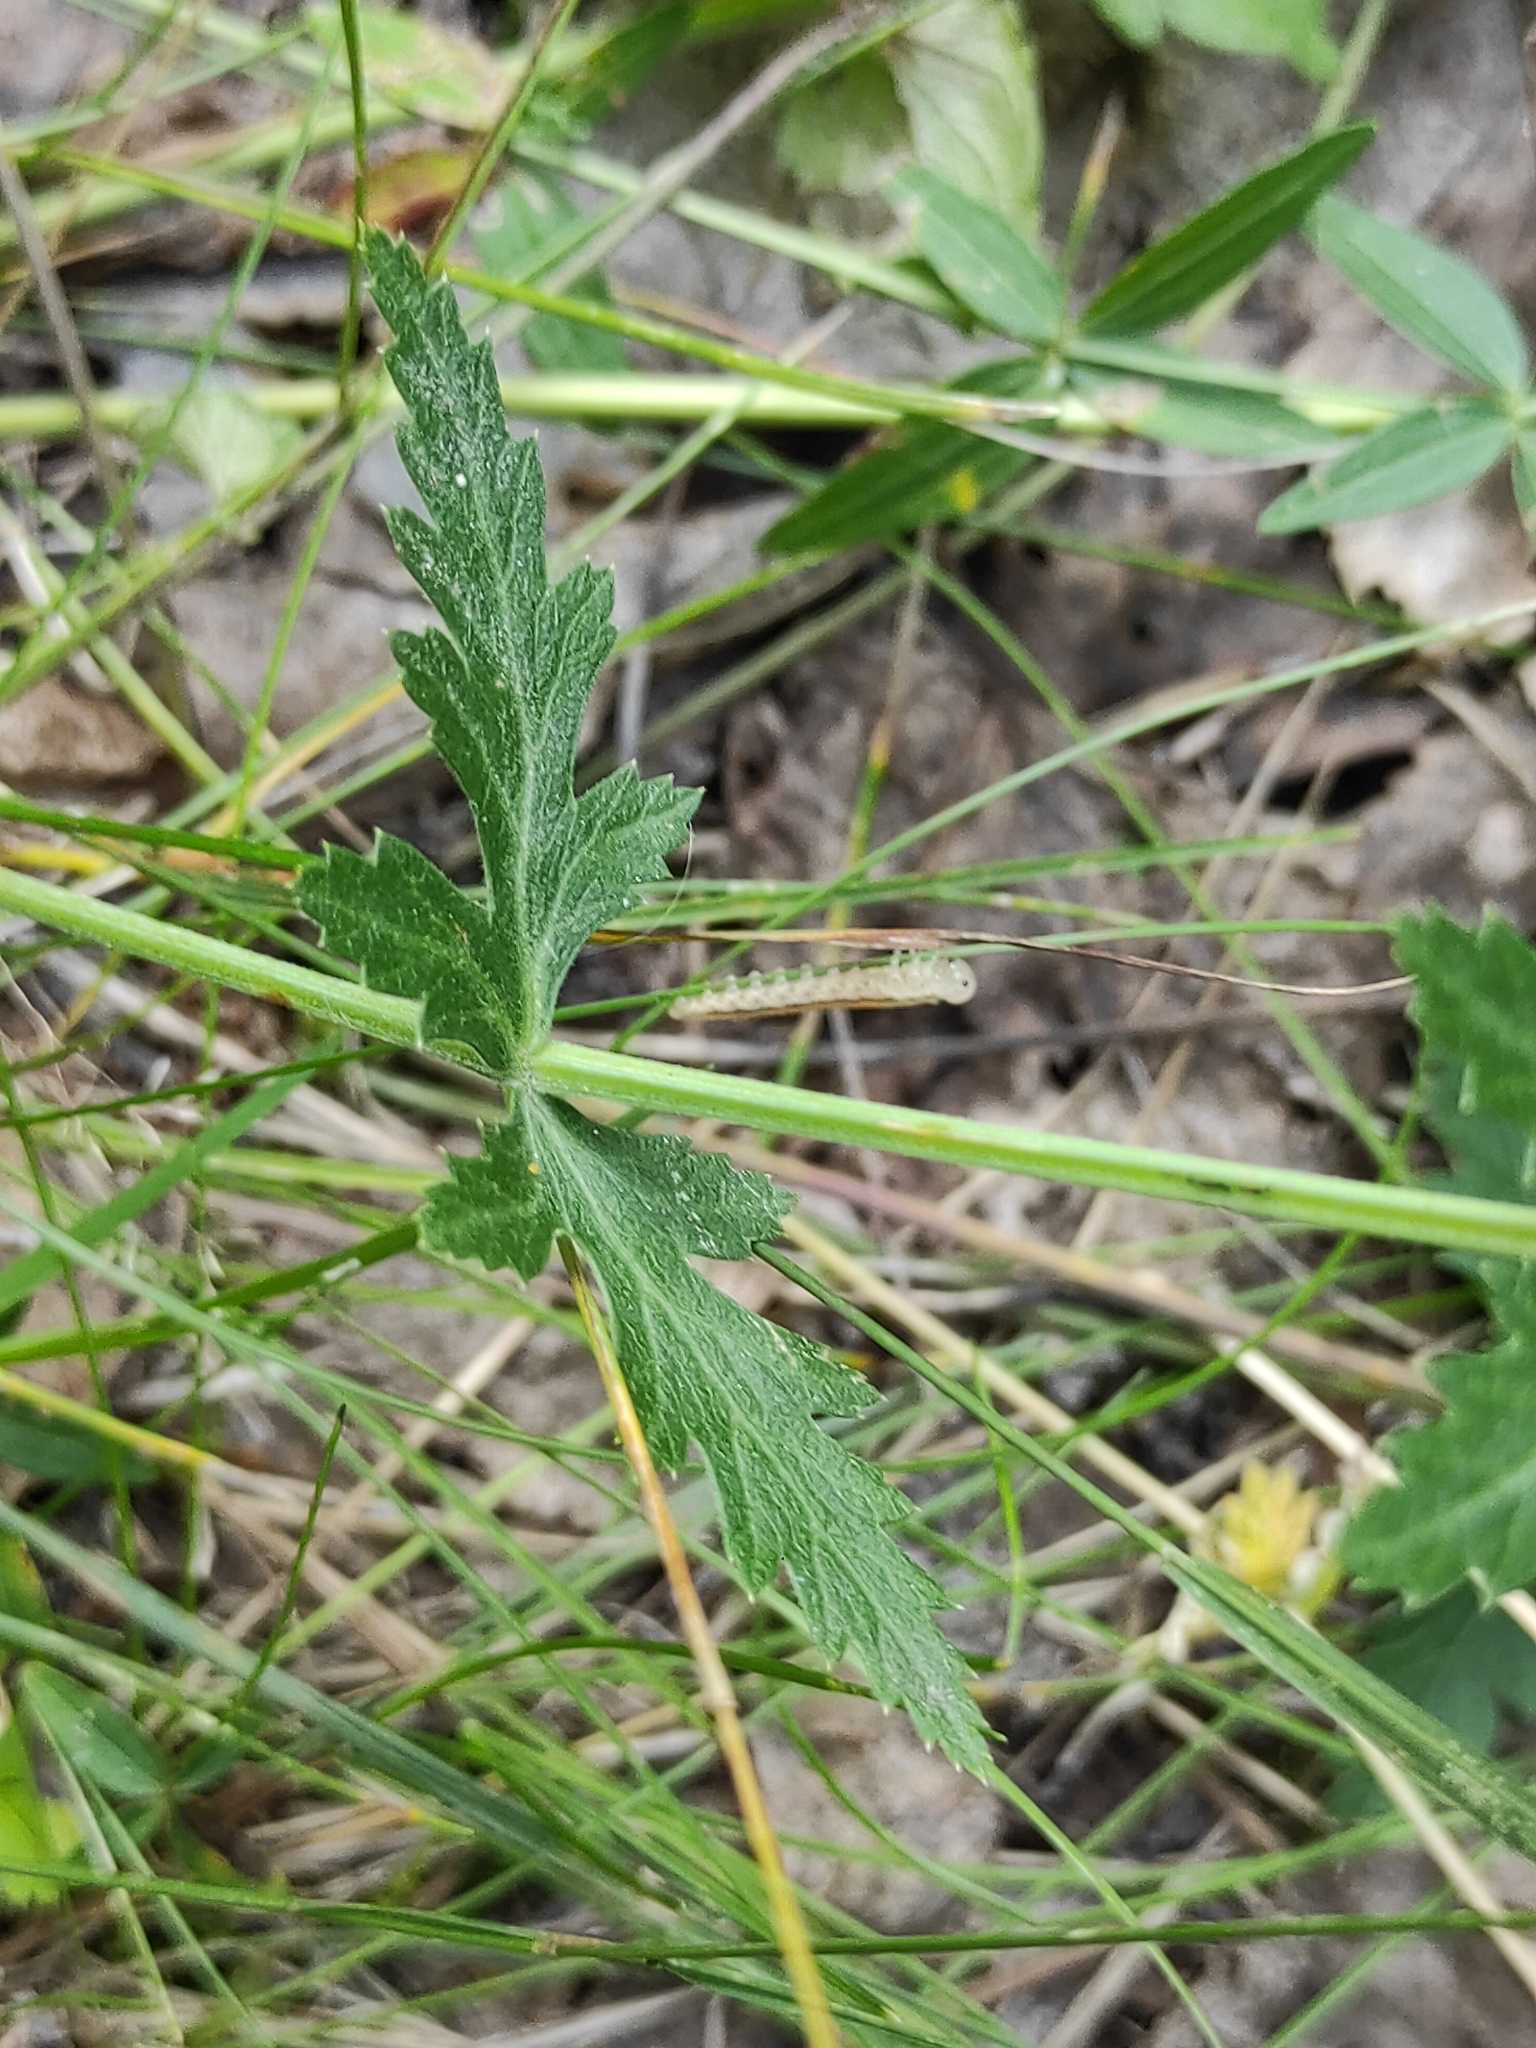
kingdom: Plantae
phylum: Tracheophyta
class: Magnoliopsida
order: Apiales
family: Apiaceae
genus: Seseli
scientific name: Seseli krylovii
